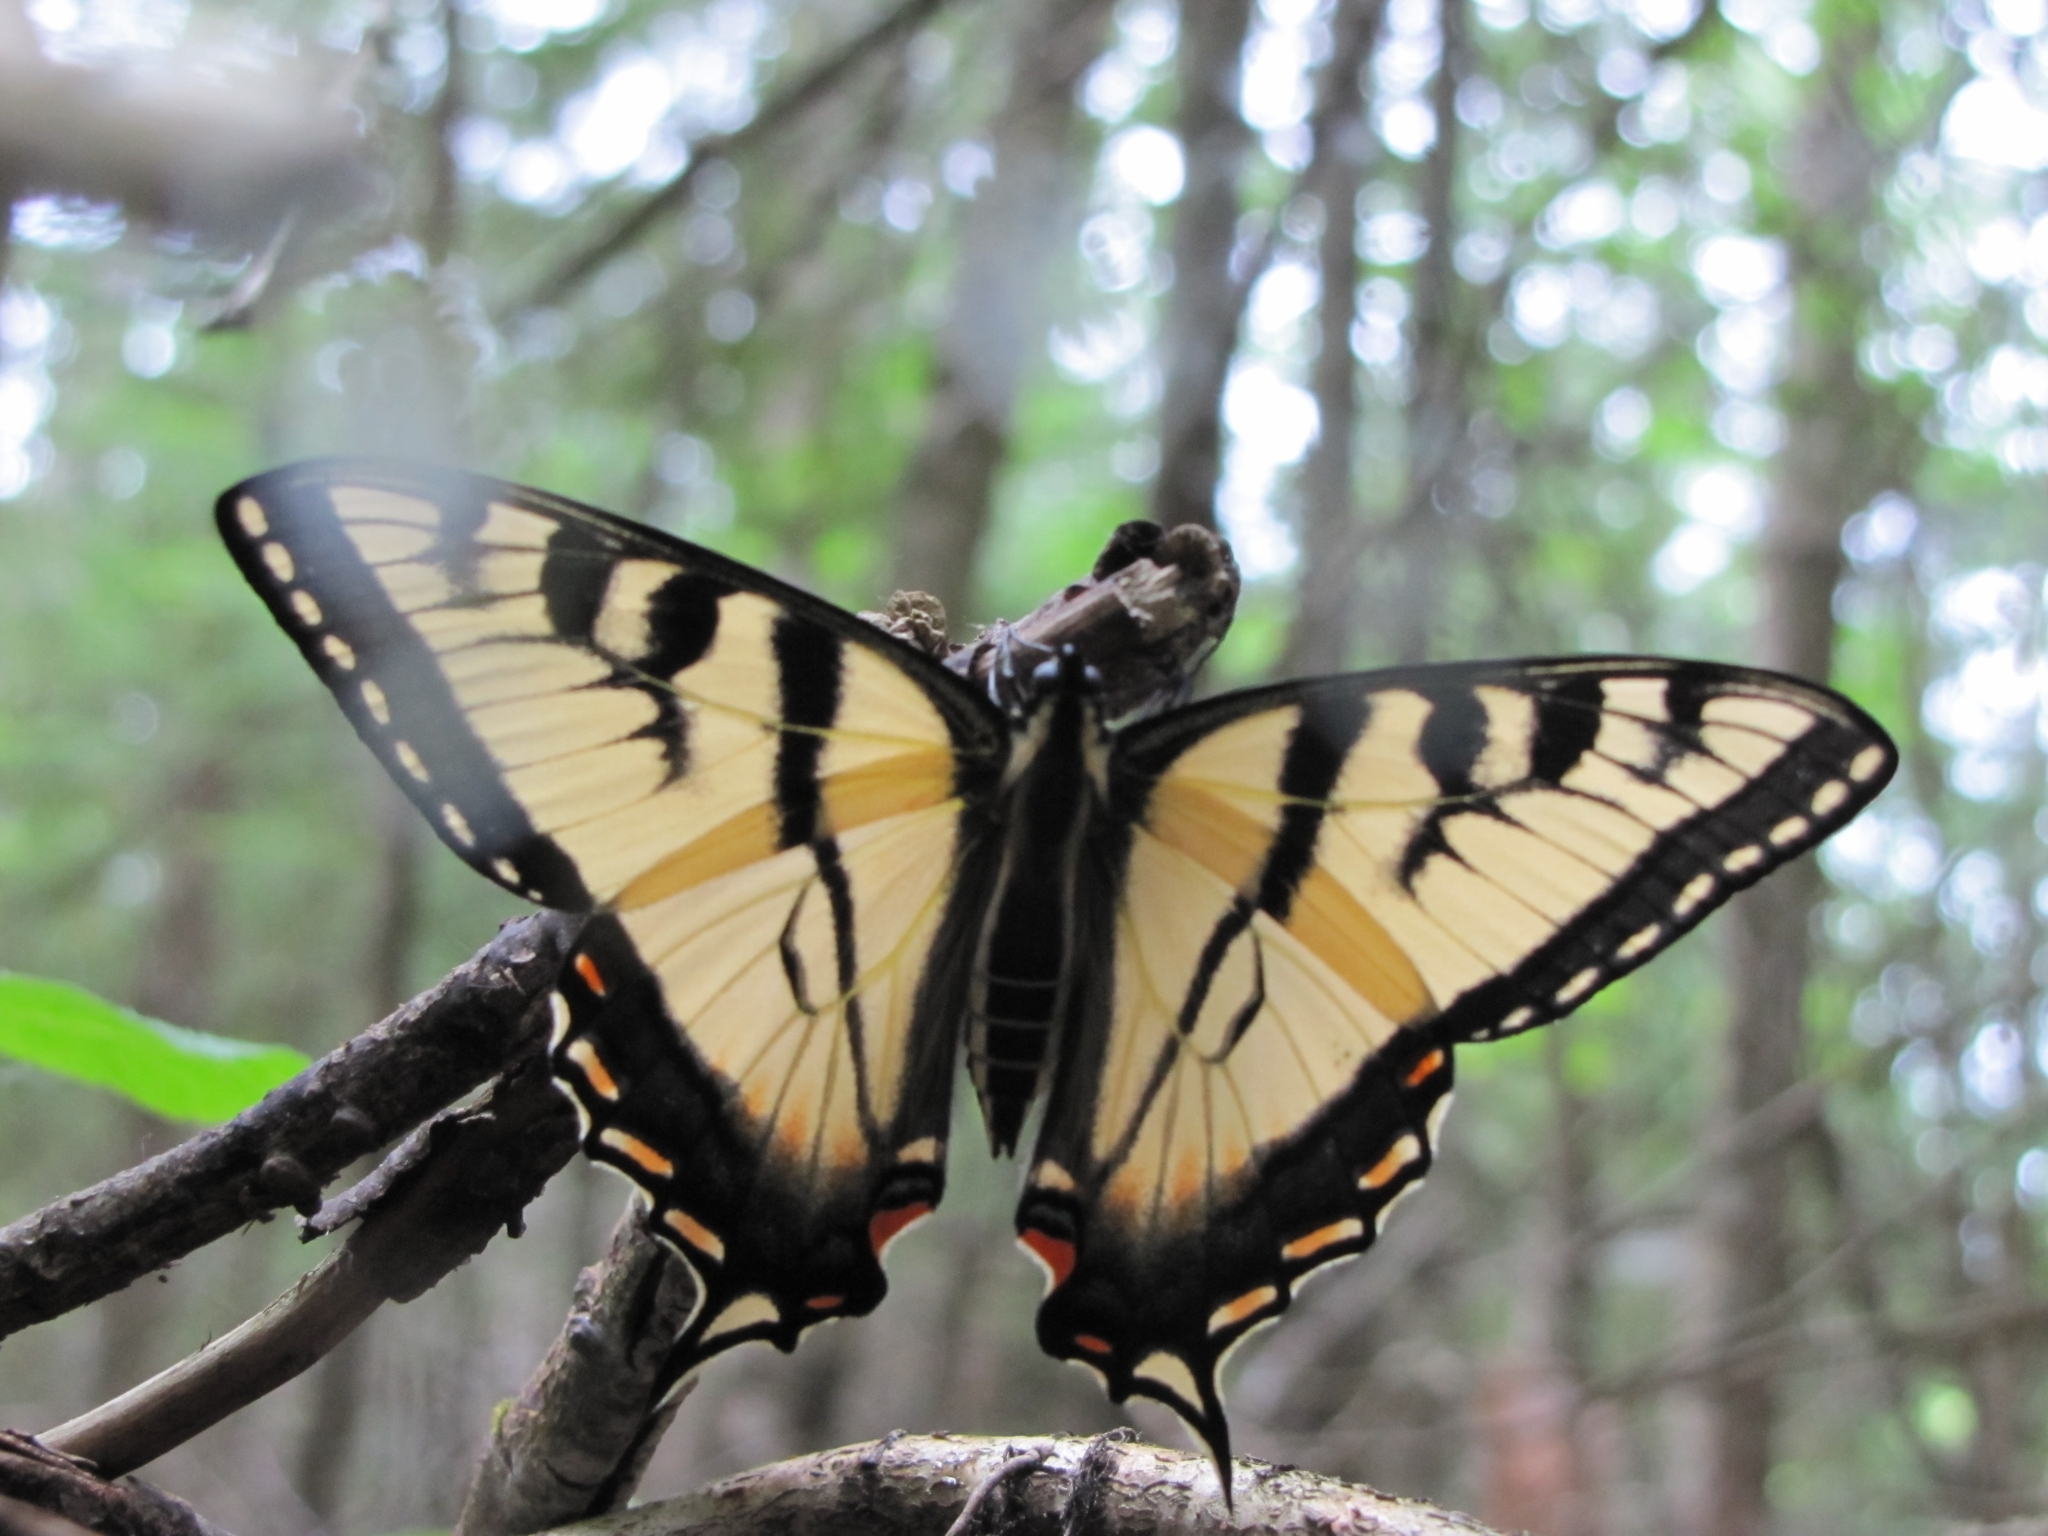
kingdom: Animalia
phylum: Arthropoda
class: Insecta
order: Lepidoptera
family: Papilionidae
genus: Papilio
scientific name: Papilio canadensis
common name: Canadian tiger swallowtail
